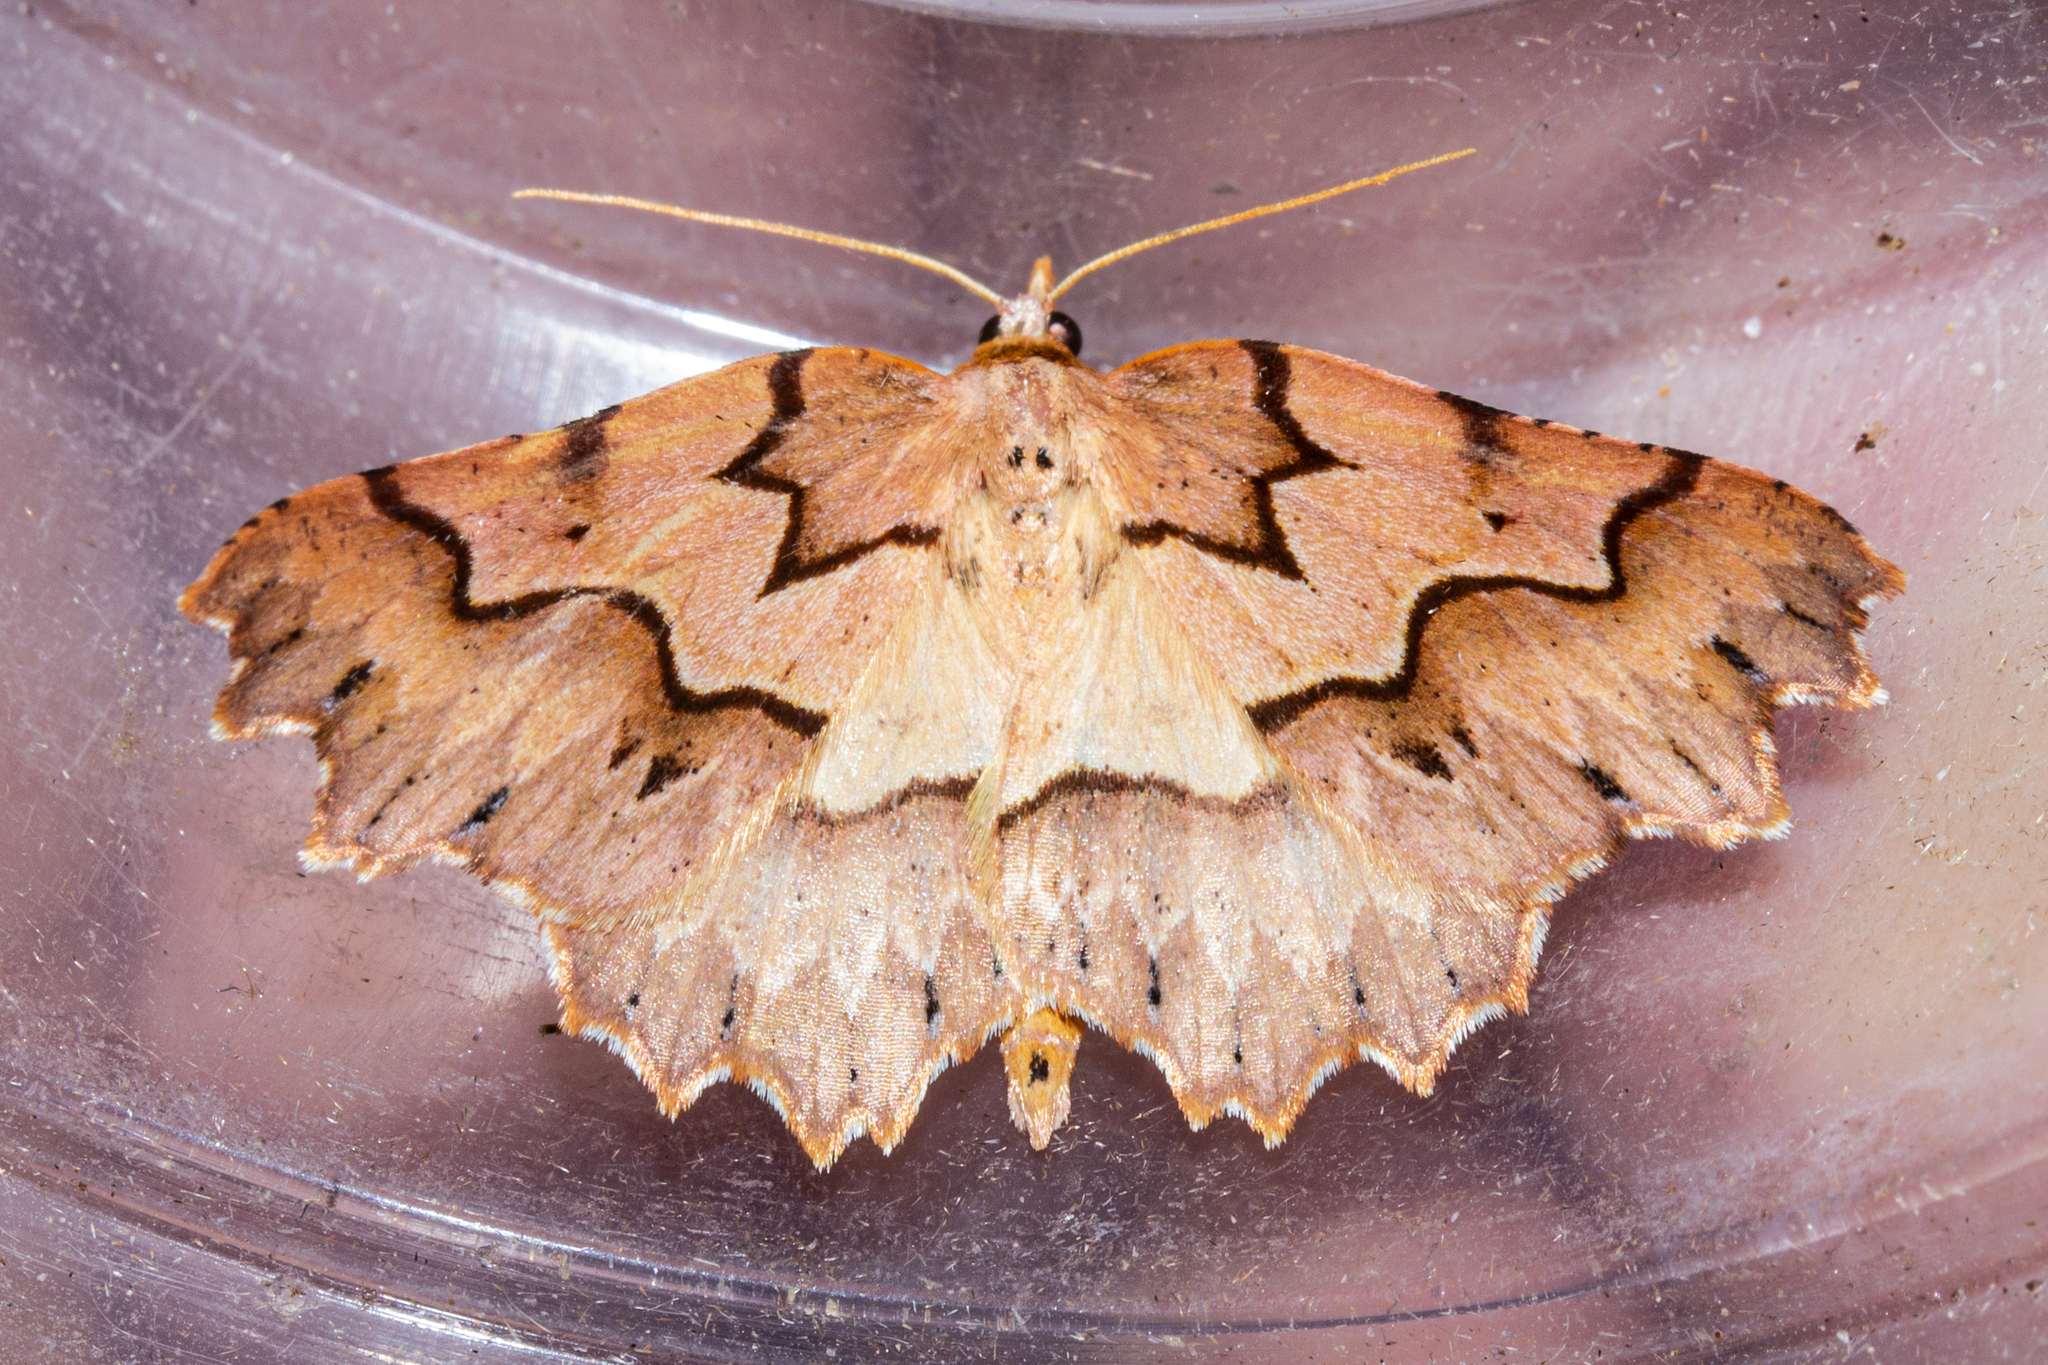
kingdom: Animalia
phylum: Arthropoda
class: Insecta
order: Lepidoptera
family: Geometridae
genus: Ischalis
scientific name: Ischalis fortinata
